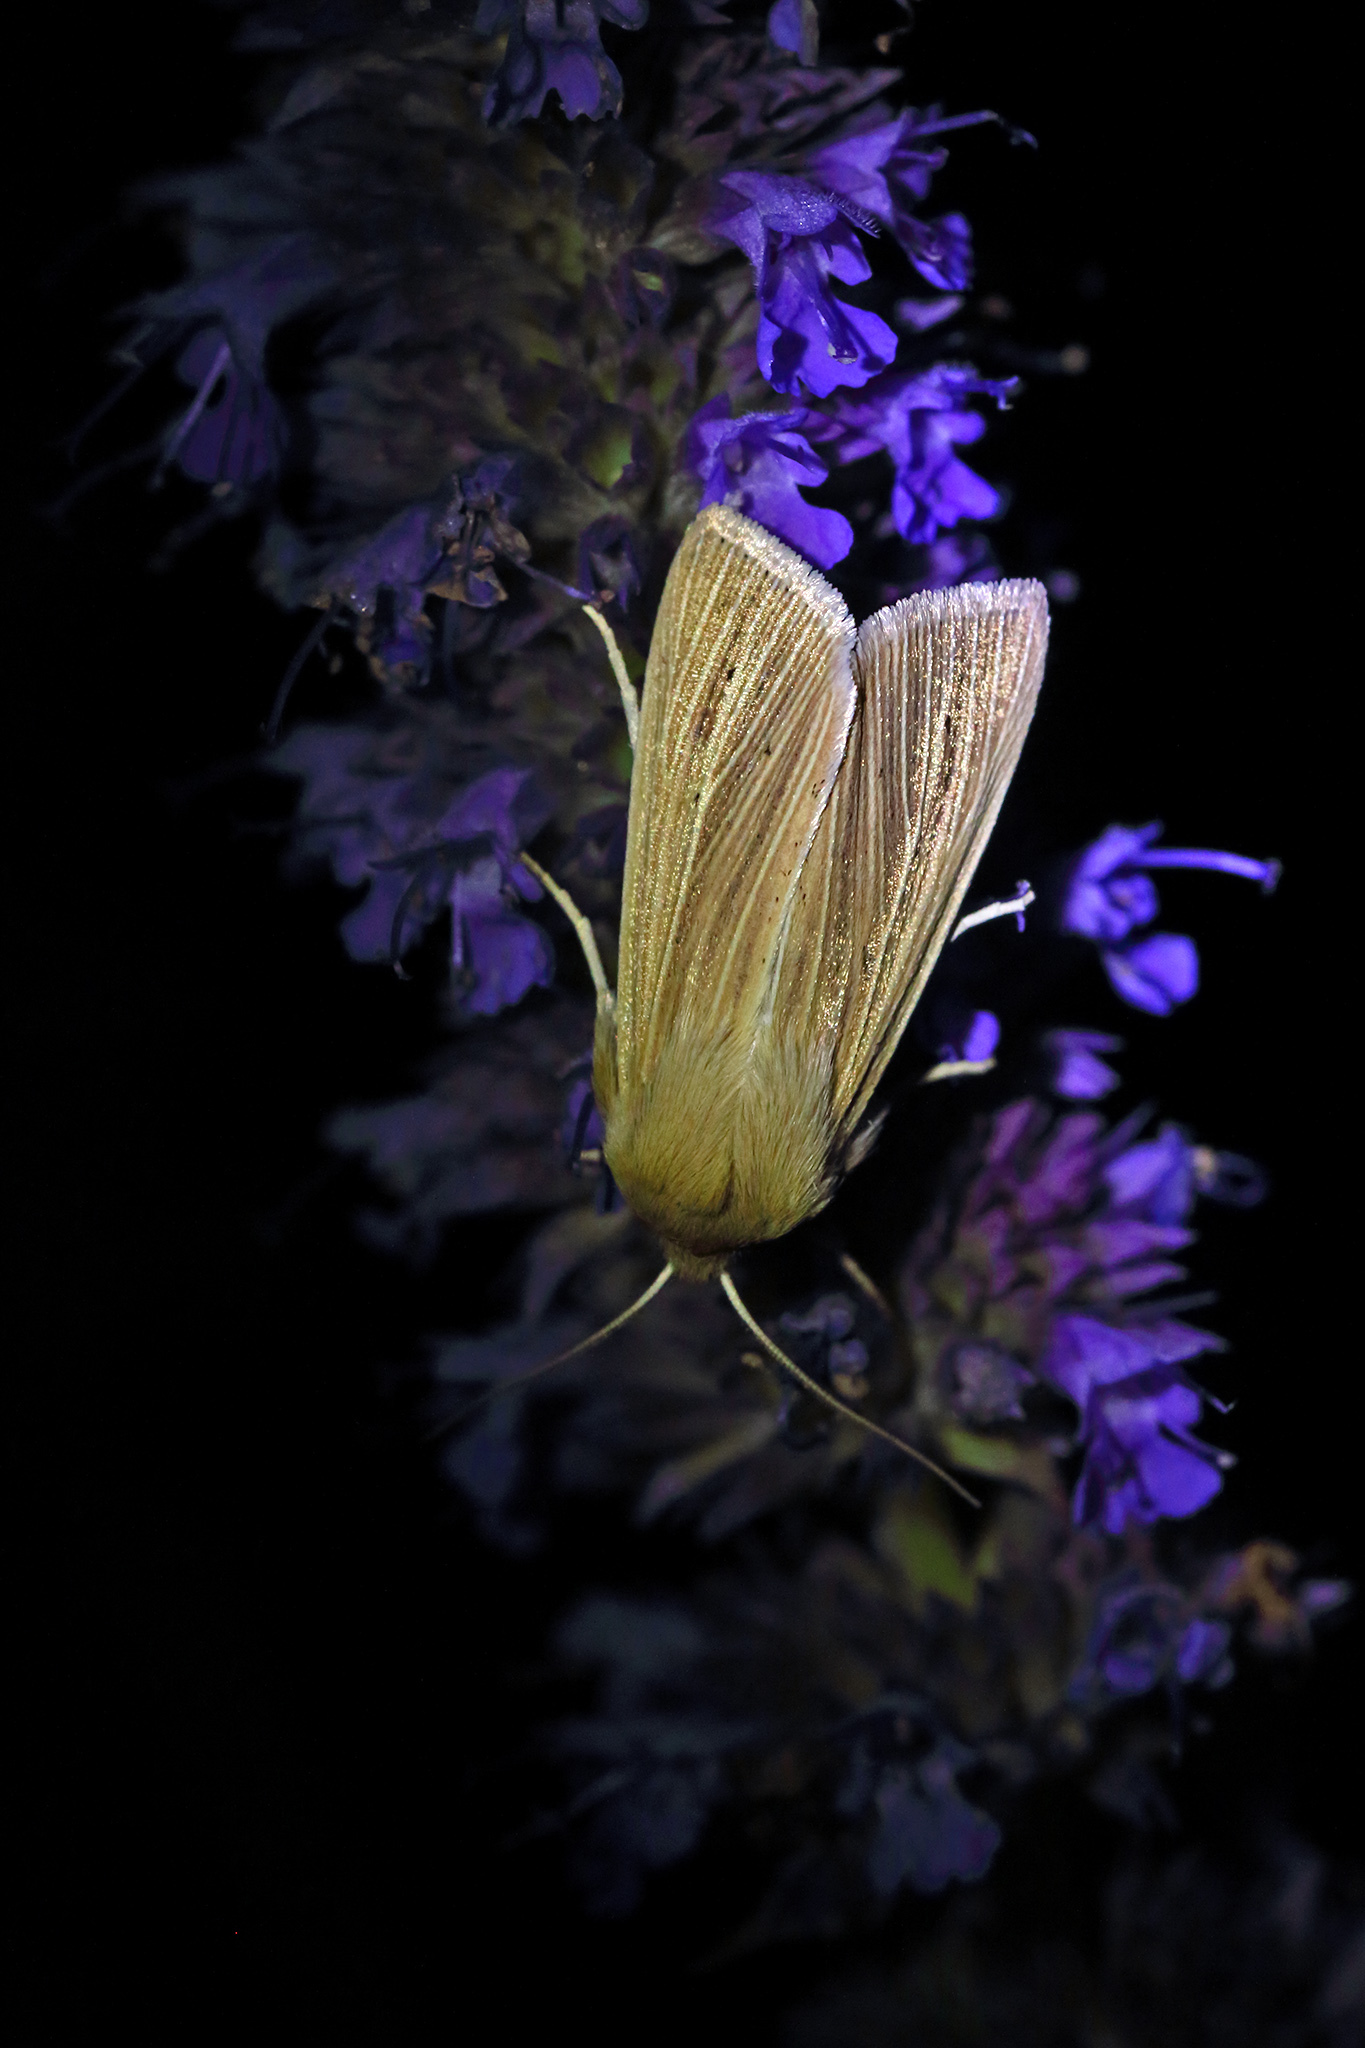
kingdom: Animalia
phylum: Arthropoda
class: Insecta
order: Lepidoptera
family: Noctuidae
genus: Mythimna
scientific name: Mythimna pallens
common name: Common wainscot
